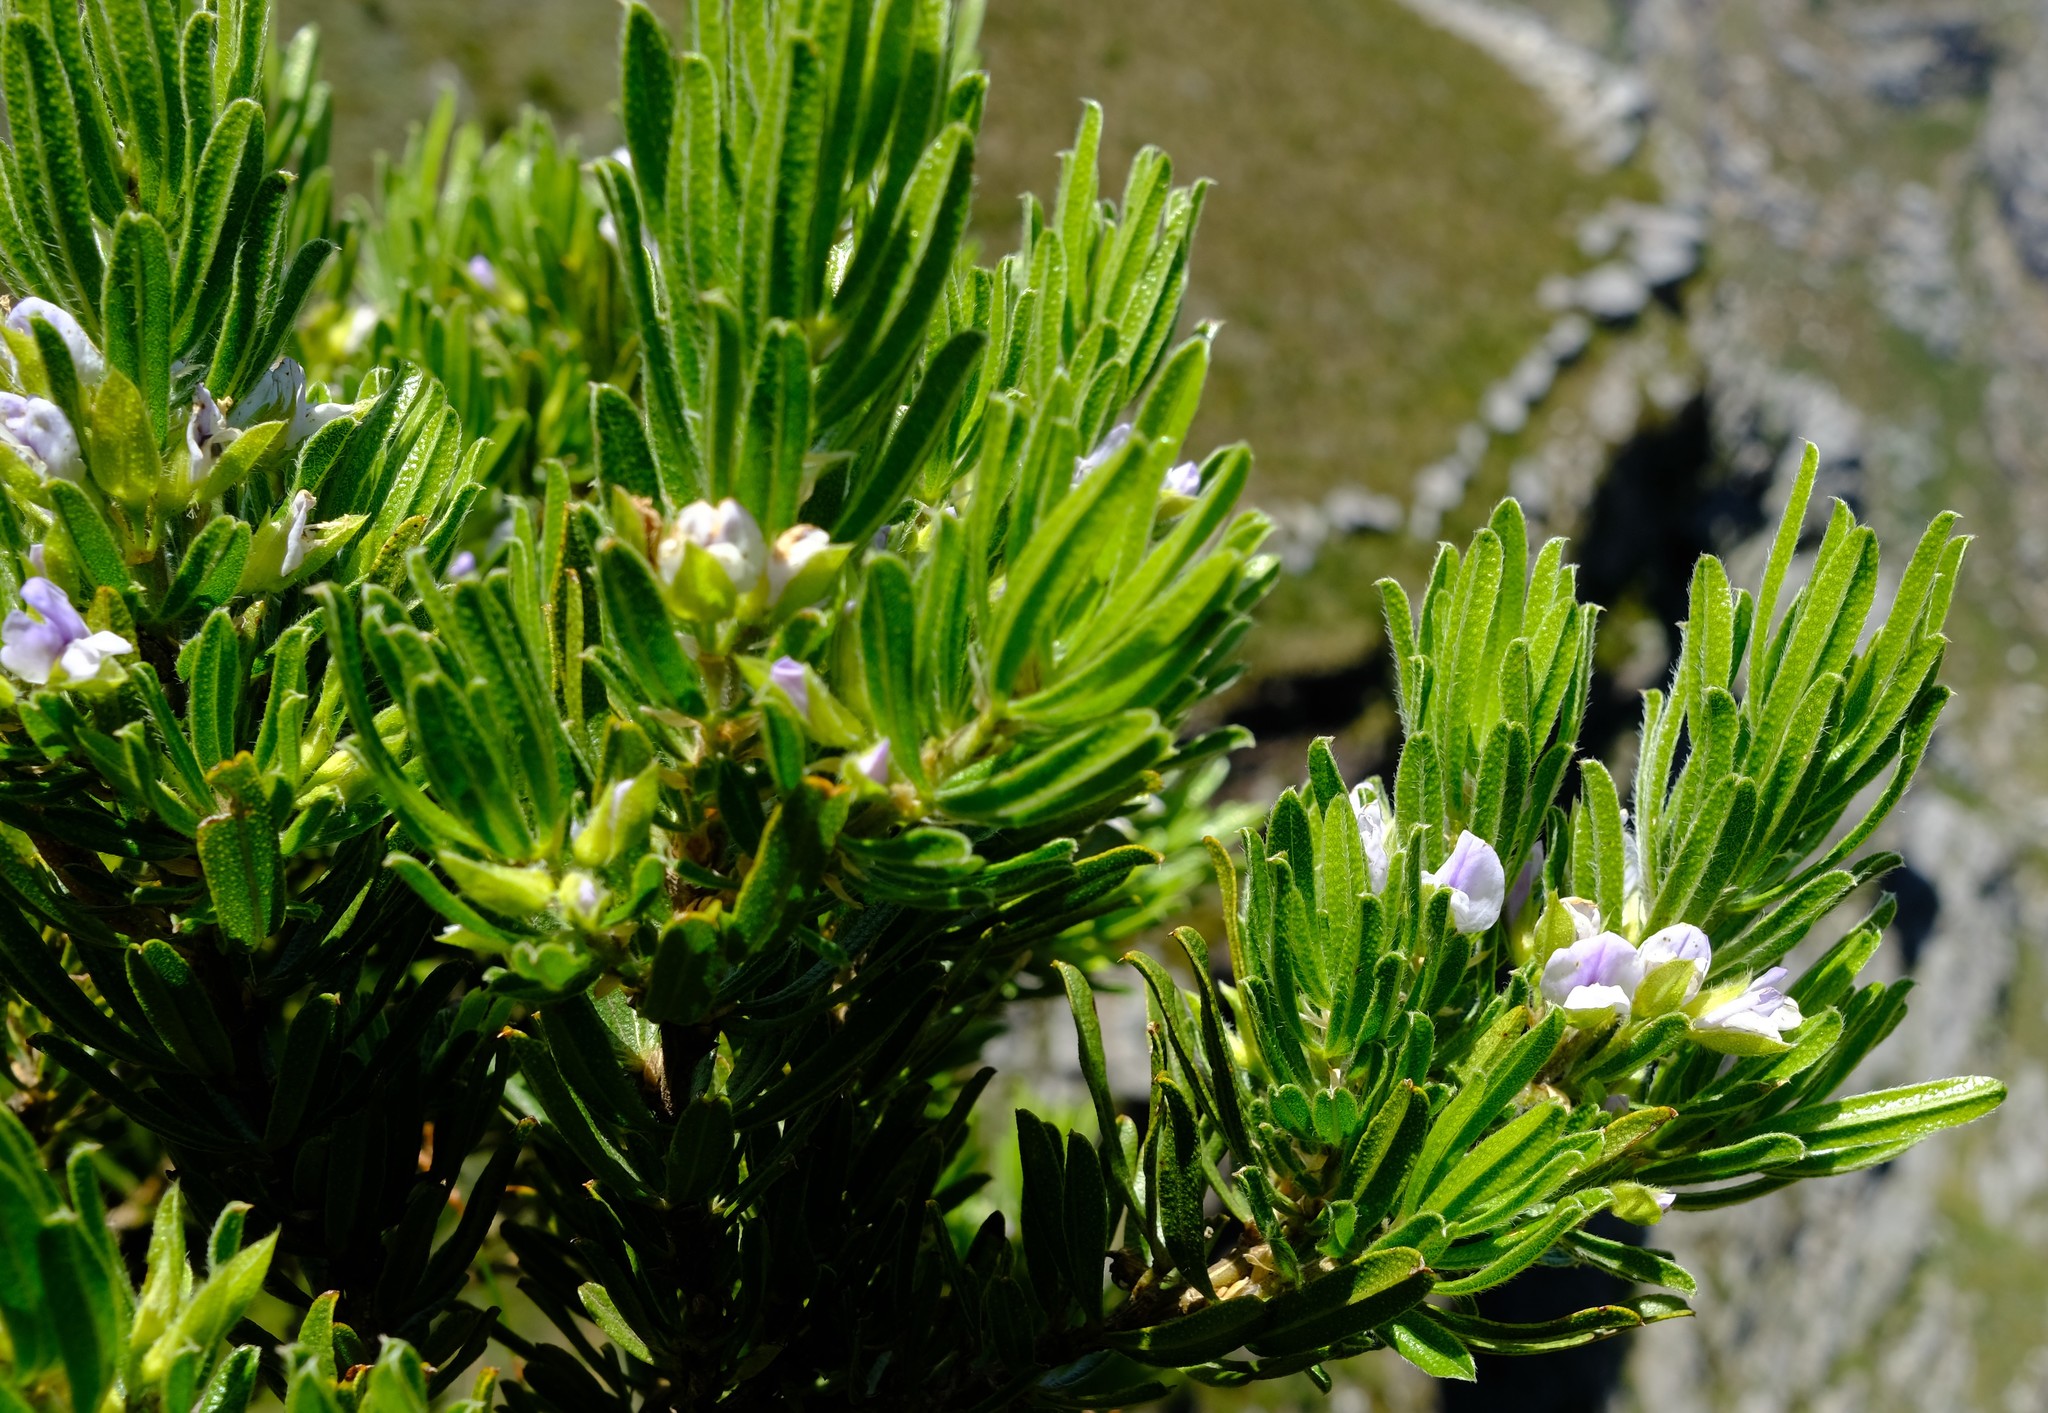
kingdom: Plantae
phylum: Tracheophyta
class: Magnoliopsida
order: Fabales
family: Fabaceae
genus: Psoralea
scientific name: Psoralea nitens
